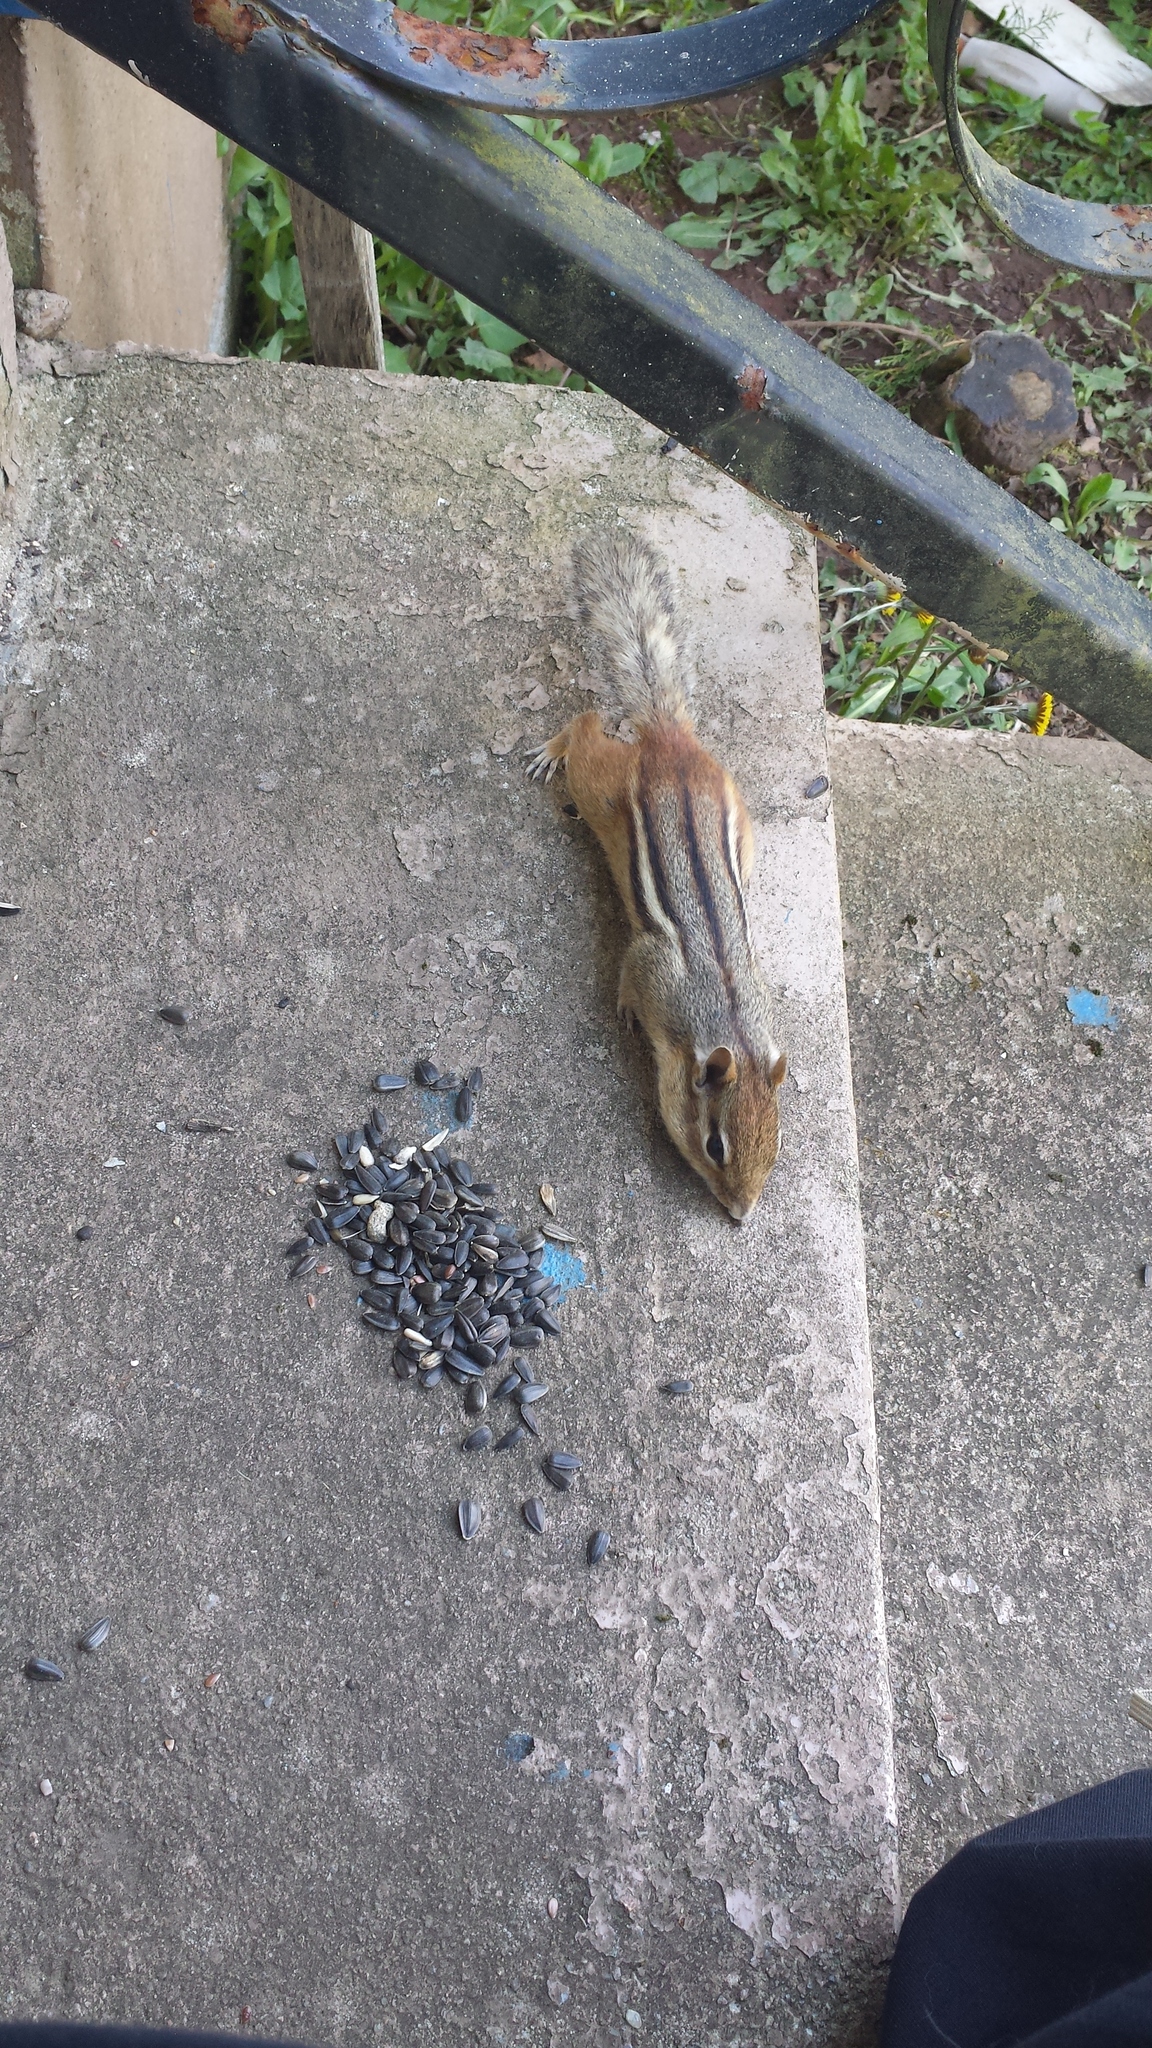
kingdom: Animalia
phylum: Chordata
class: Mammalia
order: Rodentia
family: Sciuridae
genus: Tamias
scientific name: Tamias striatus
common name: Eastern chipmunk
